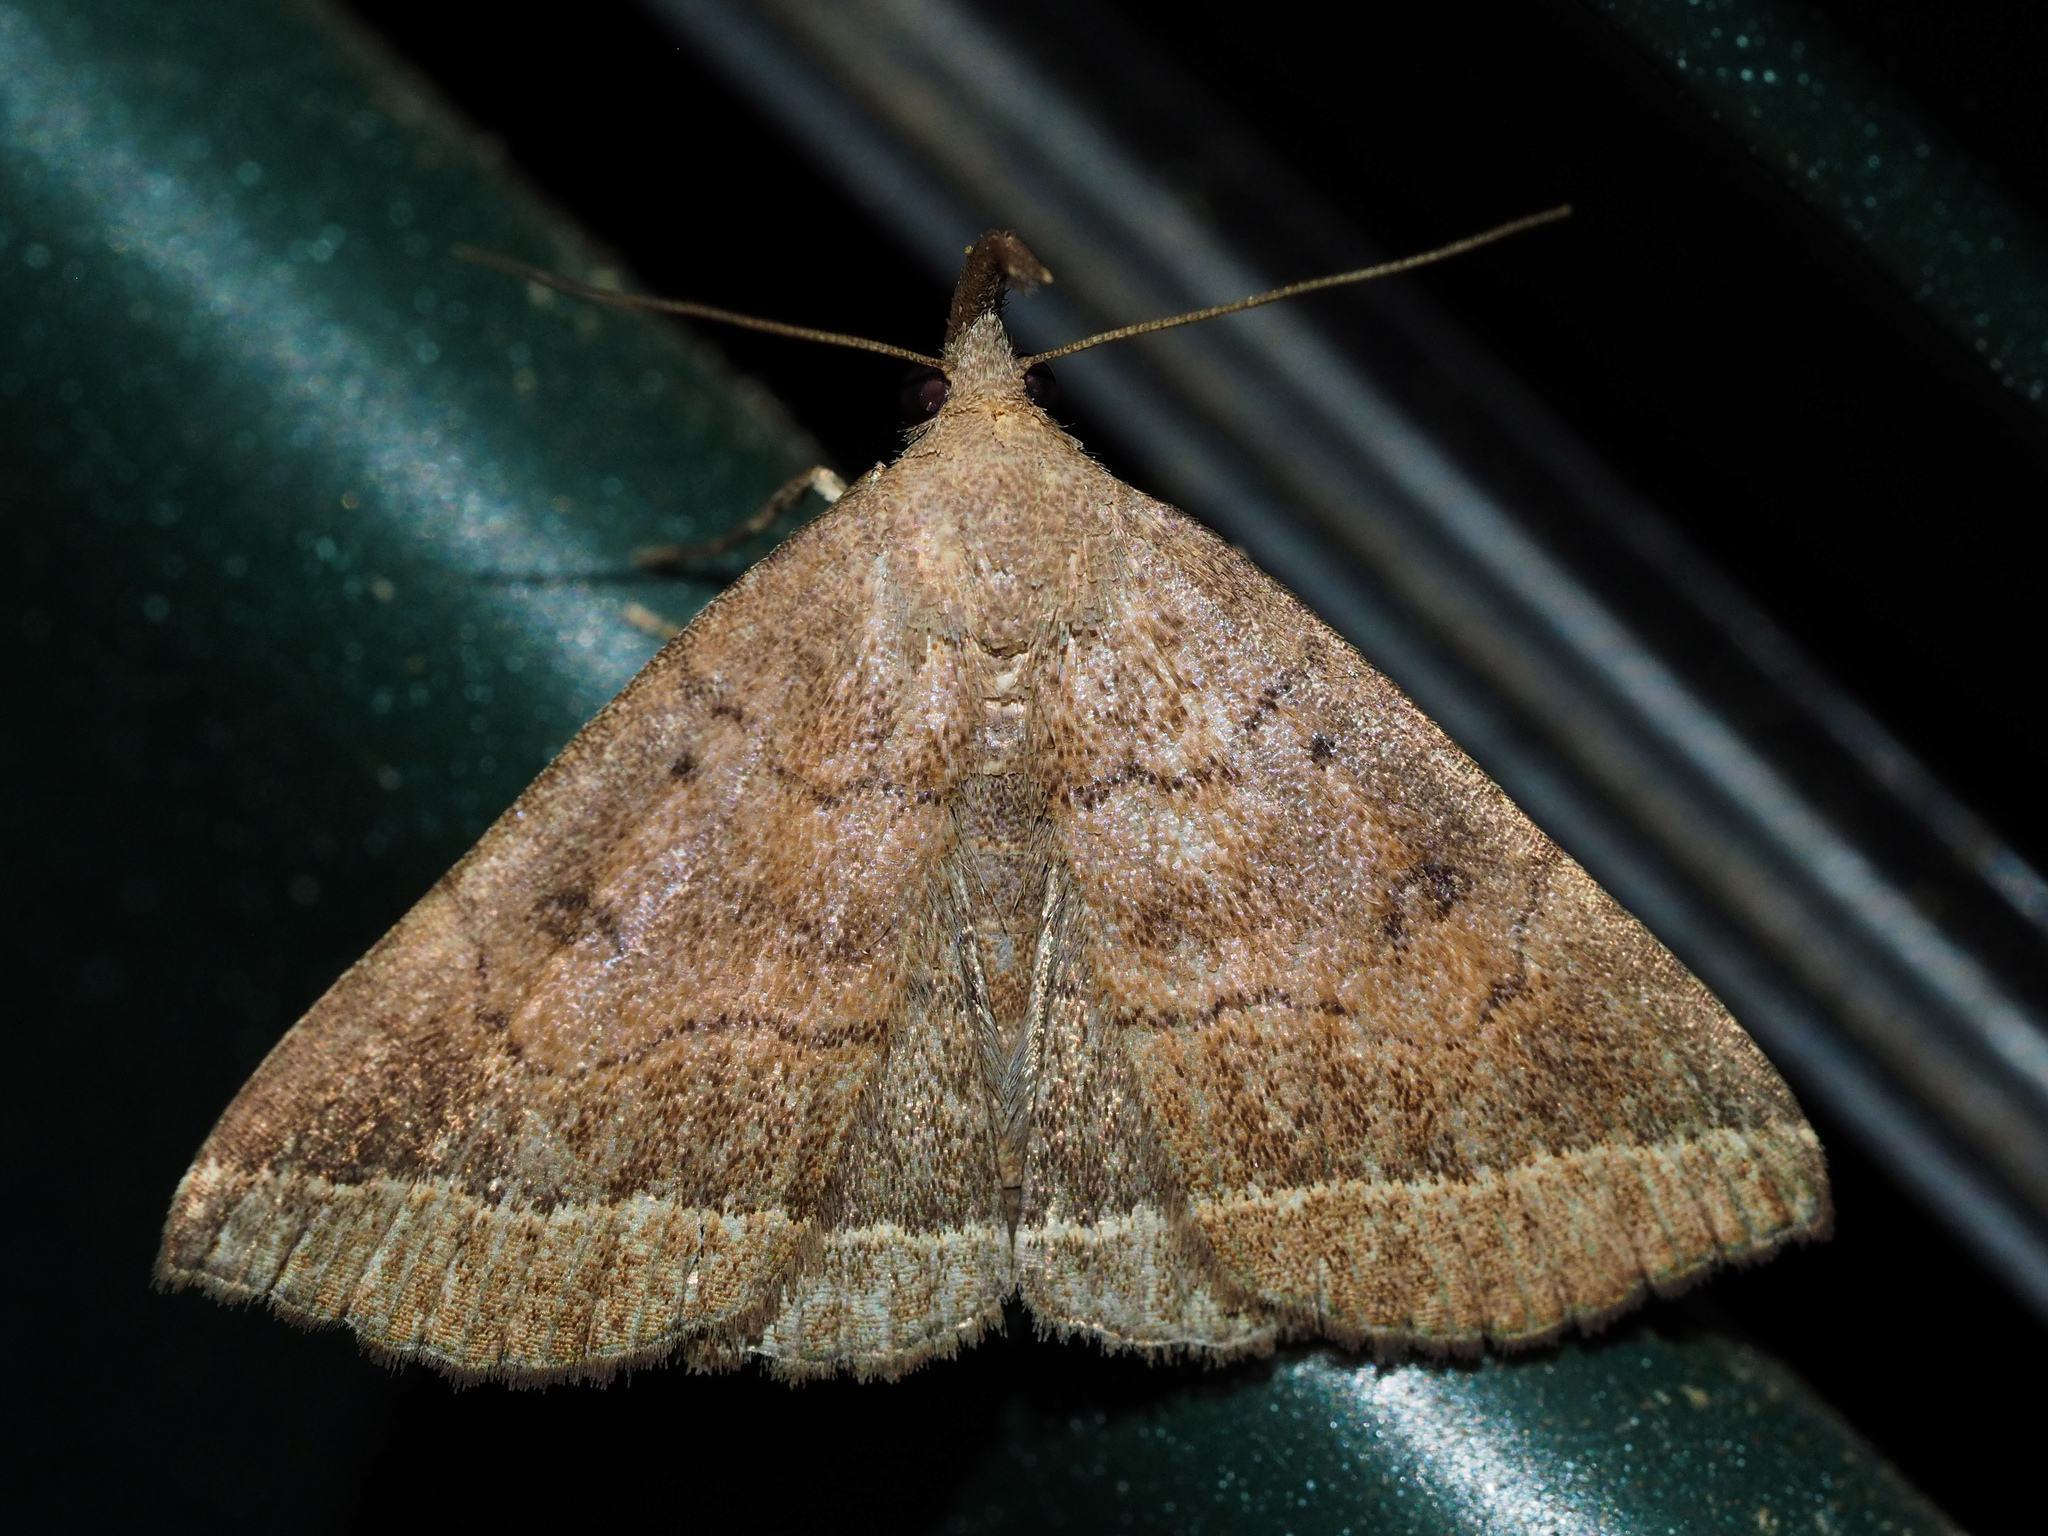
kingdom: Animalia
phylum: Arthropoda
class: Insecta
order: Lepidoptera
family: Erebidae
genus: Pechipogo
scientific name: Pechipogo plumigeralis
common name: Plumed fan-foot
